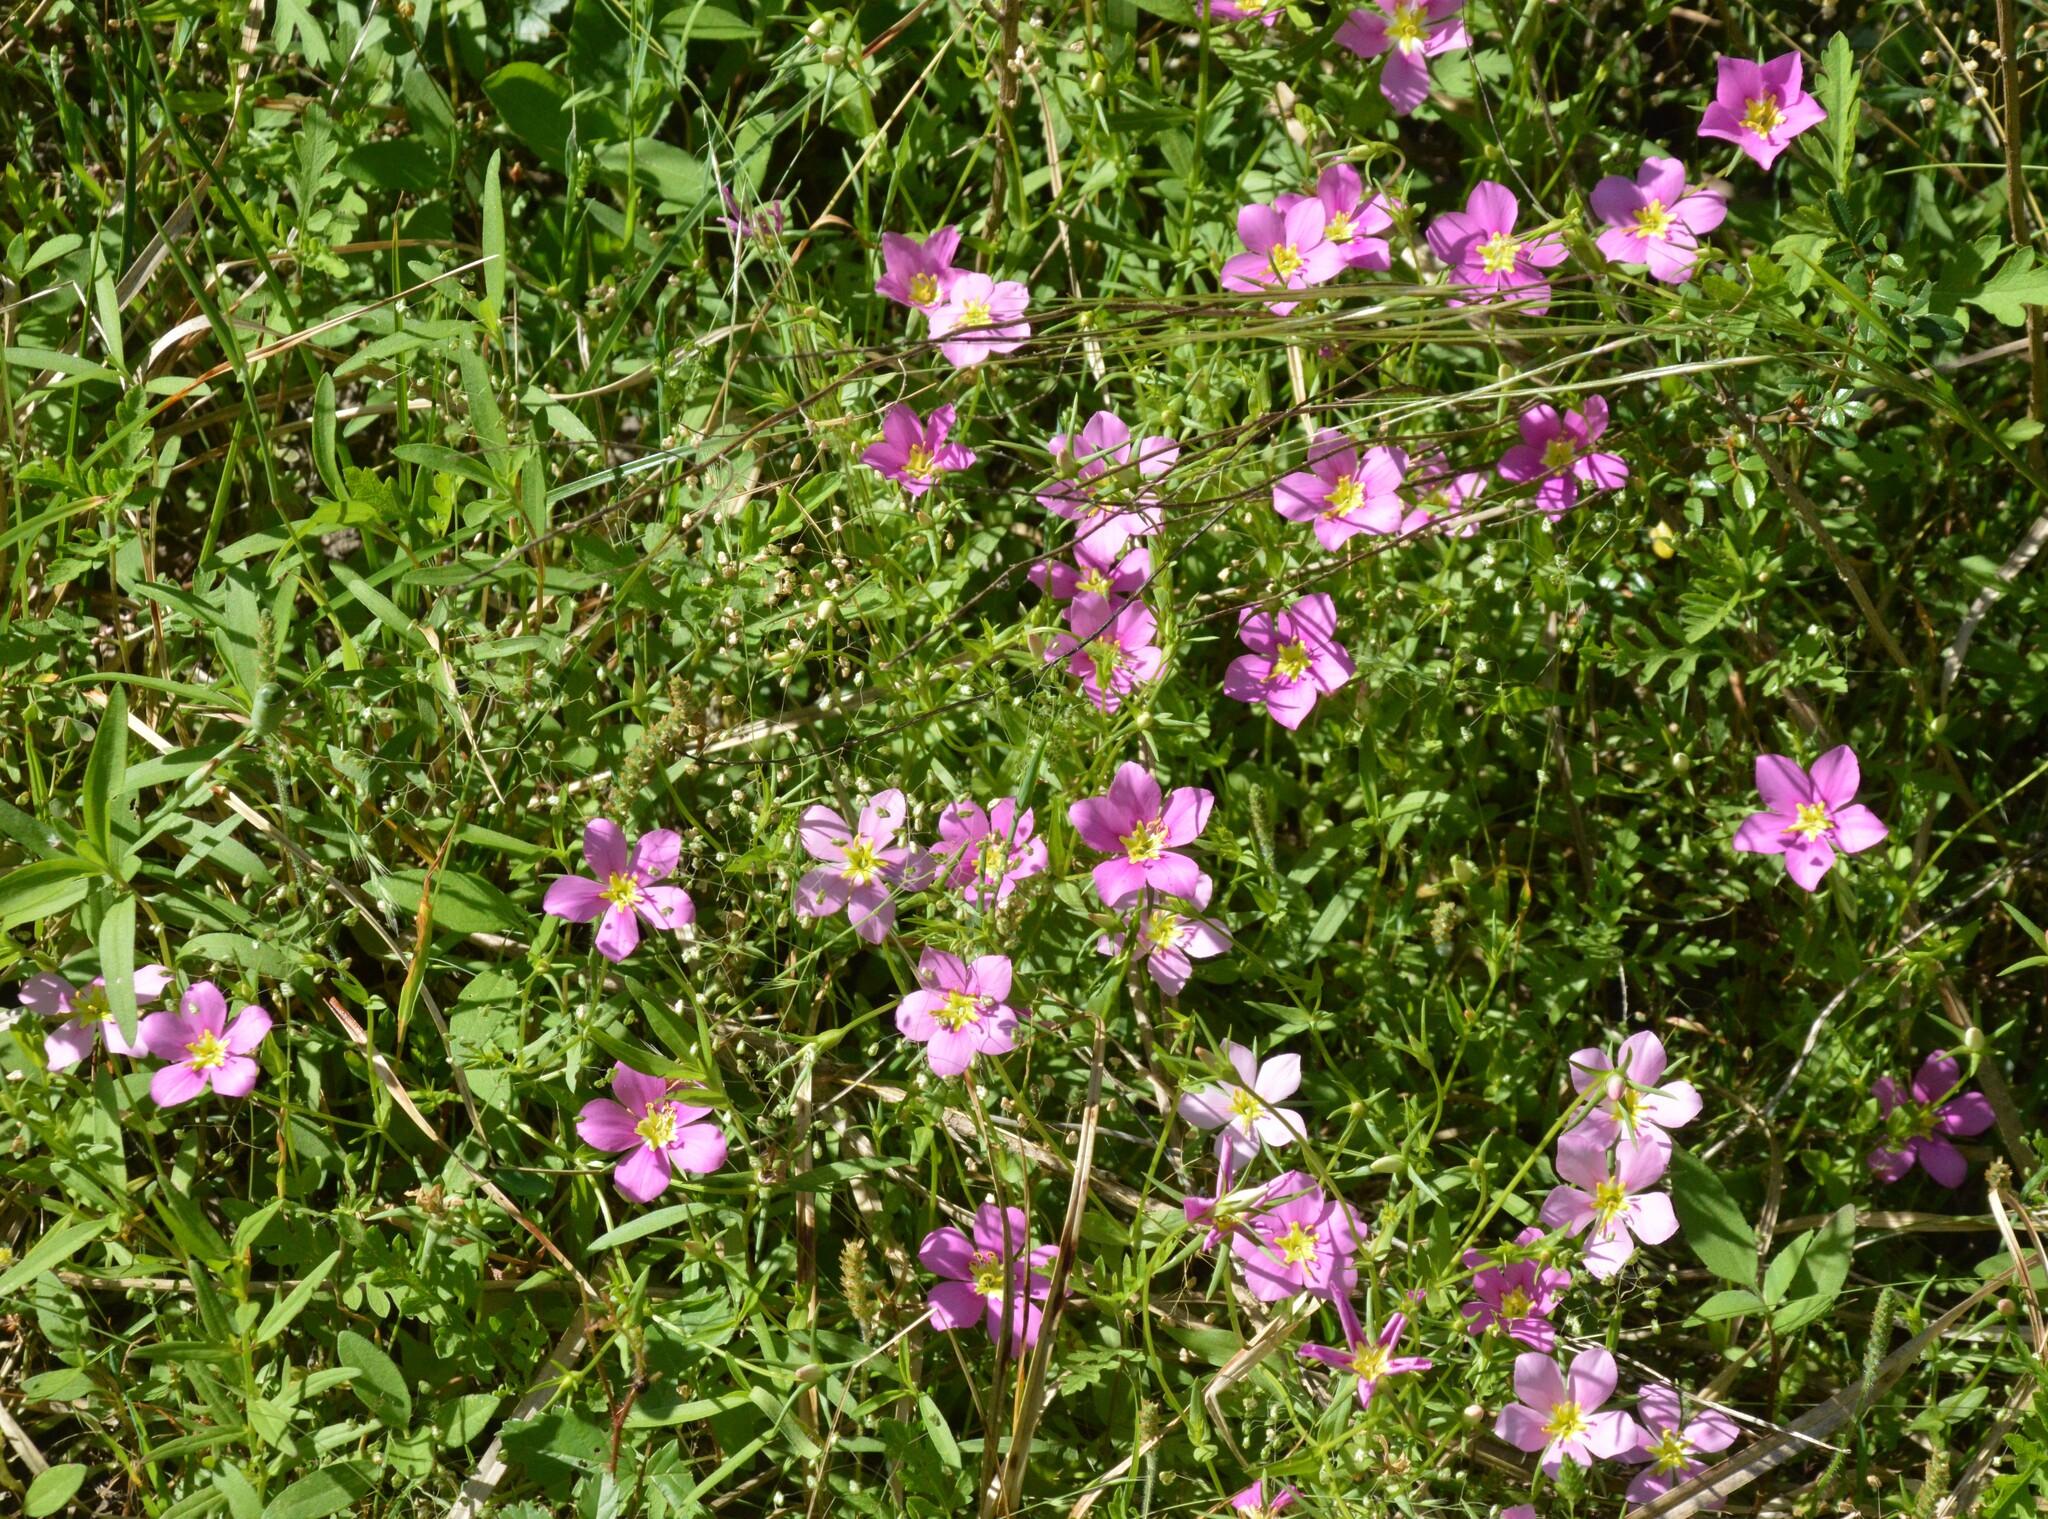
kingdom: Plantae
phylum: Tracheophyta
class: Magnoliopsida
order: Gentianales
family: Gentianaceae
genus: Sabatia
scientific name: Sabatia campestris
